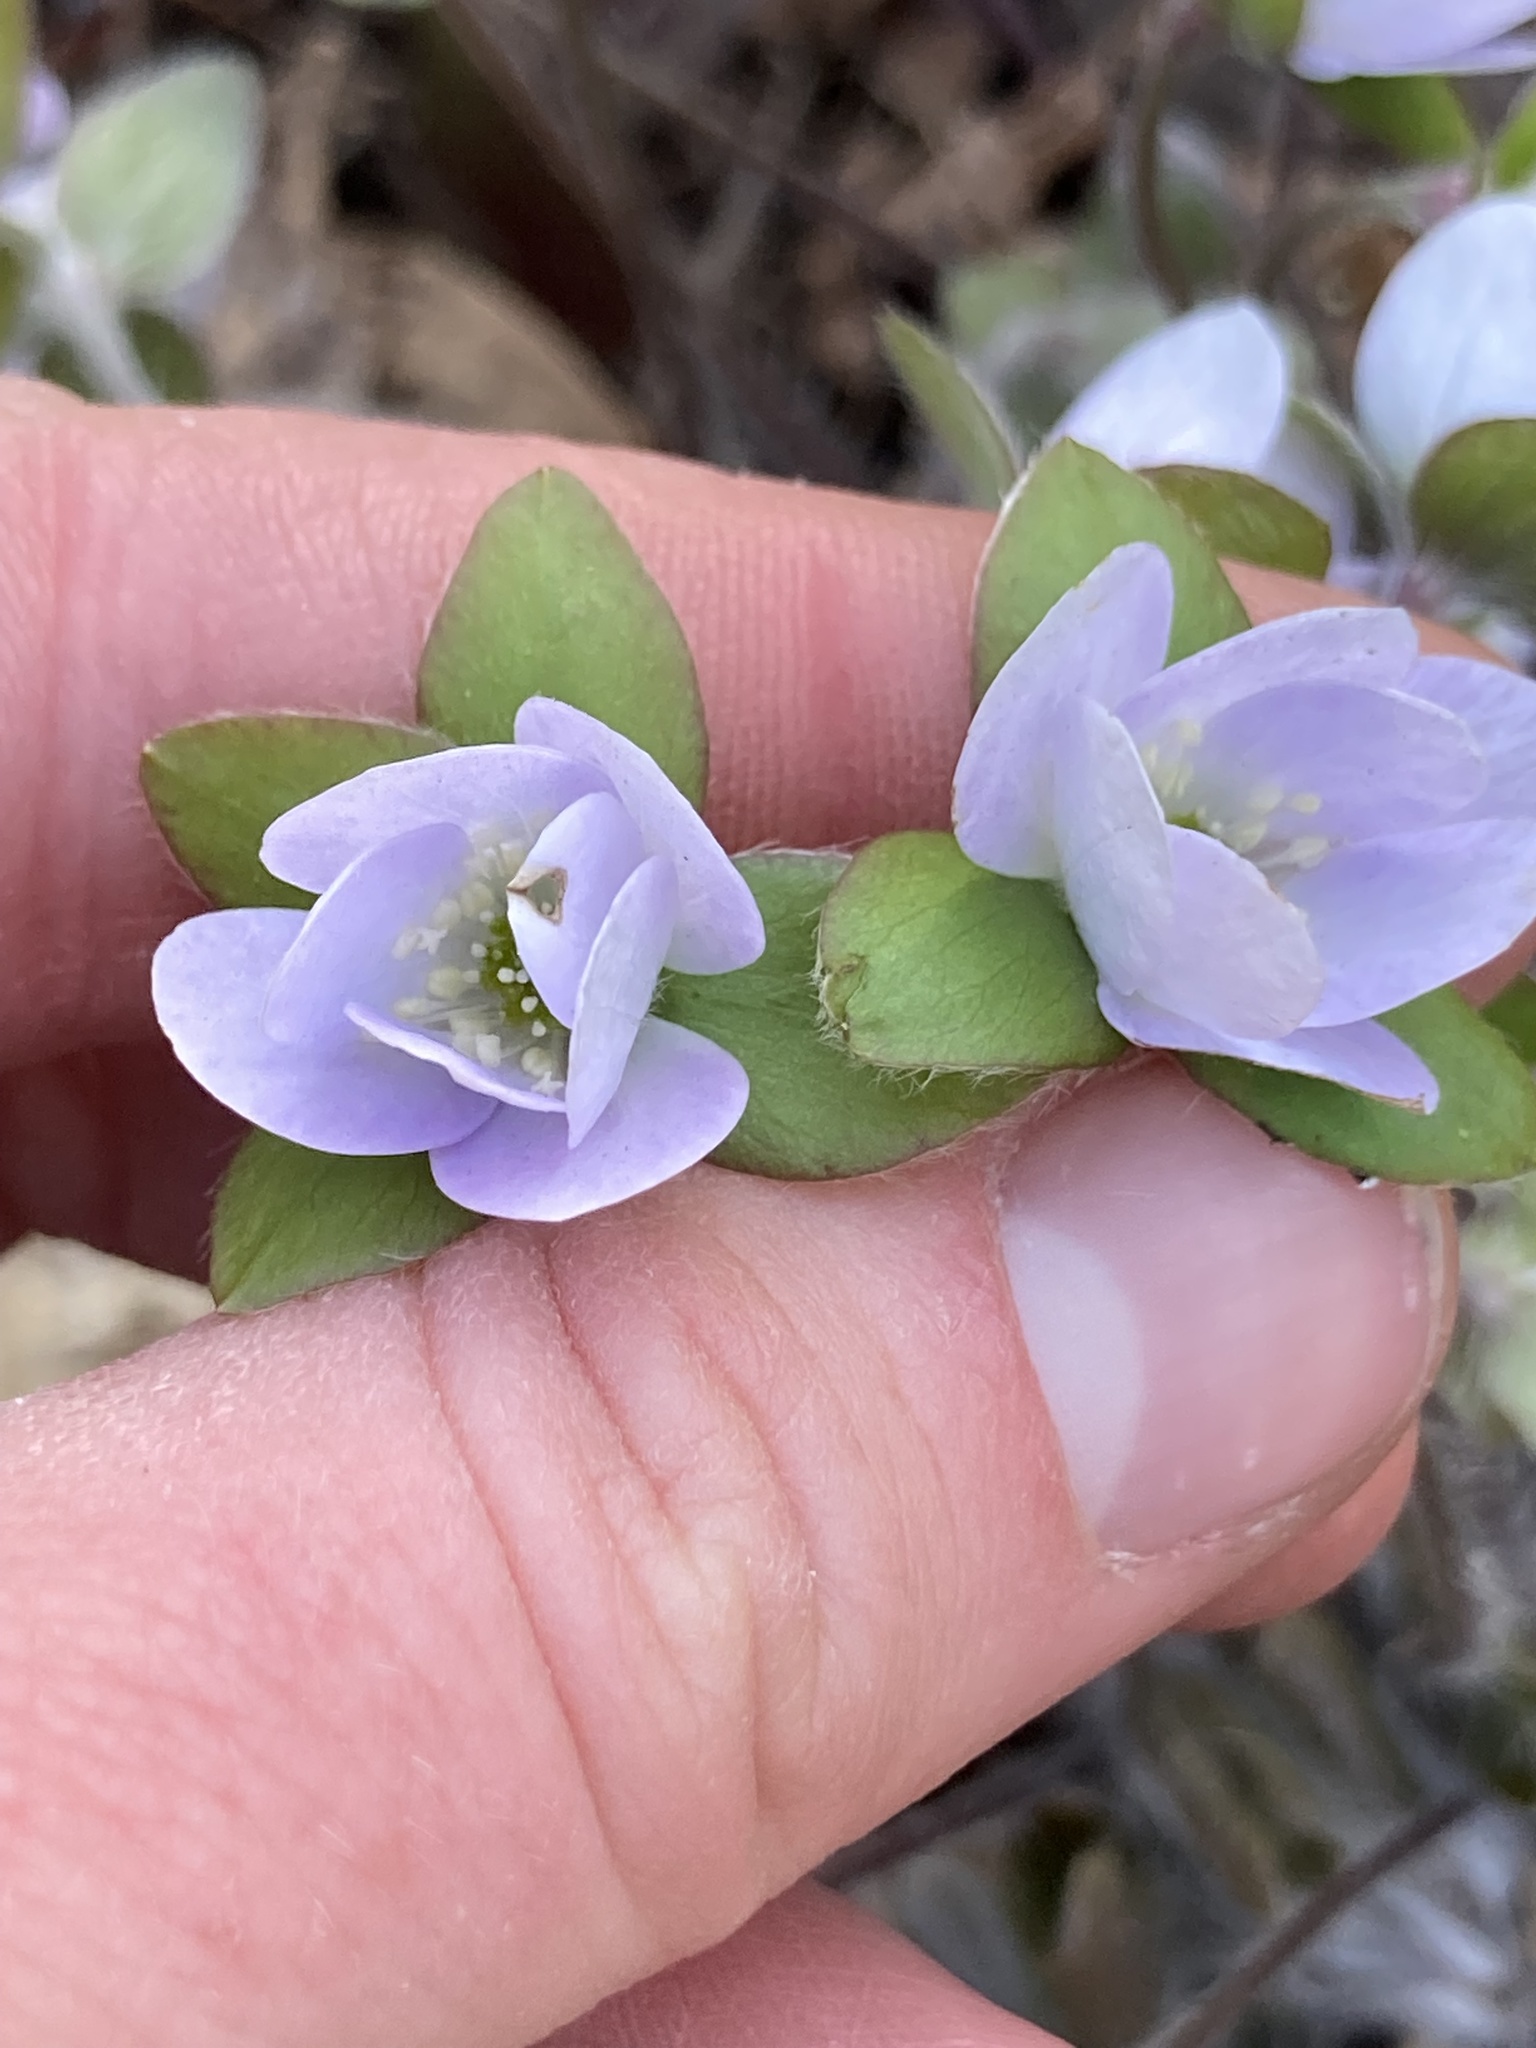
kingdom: Plantae
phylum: Tracheophyta
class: Magnoliopsida
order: Ranunculales
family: Ranunculaceae
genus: Hepatica
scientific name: Hepatica americana
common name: American hepatica
